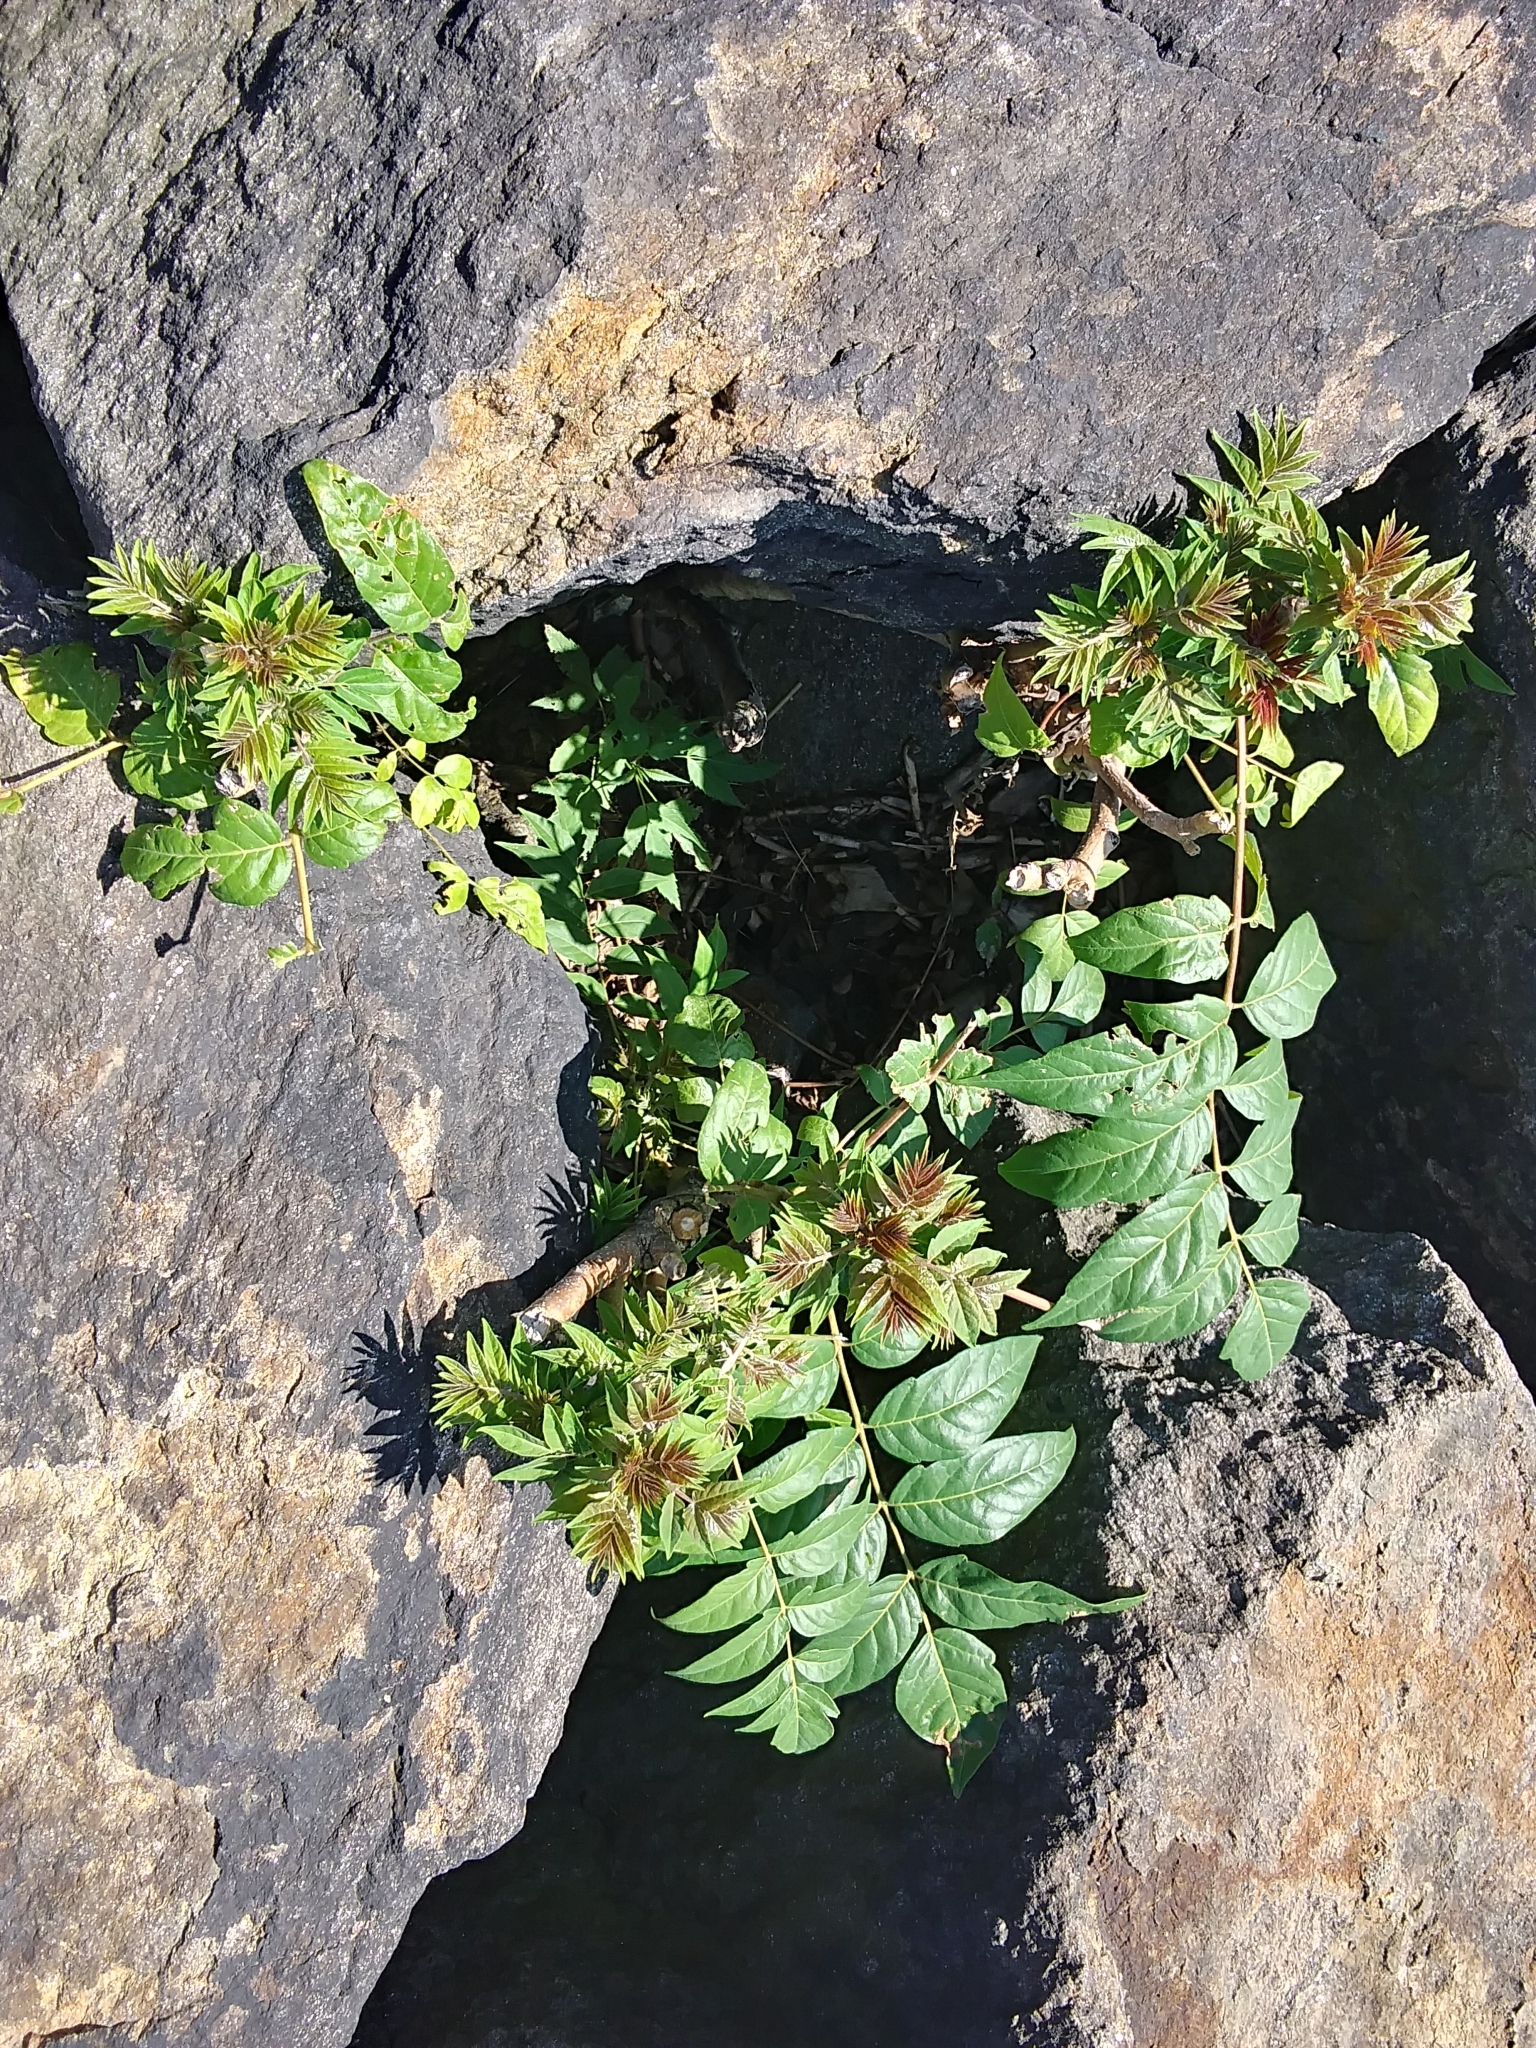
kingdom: Plantae
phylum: Tracheophyta
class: Magnoliopsida
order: Sapindales
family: Simaroubaceae
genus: Ailanthus
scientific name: Ailanthus altissima
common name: Tree-of-heaven
